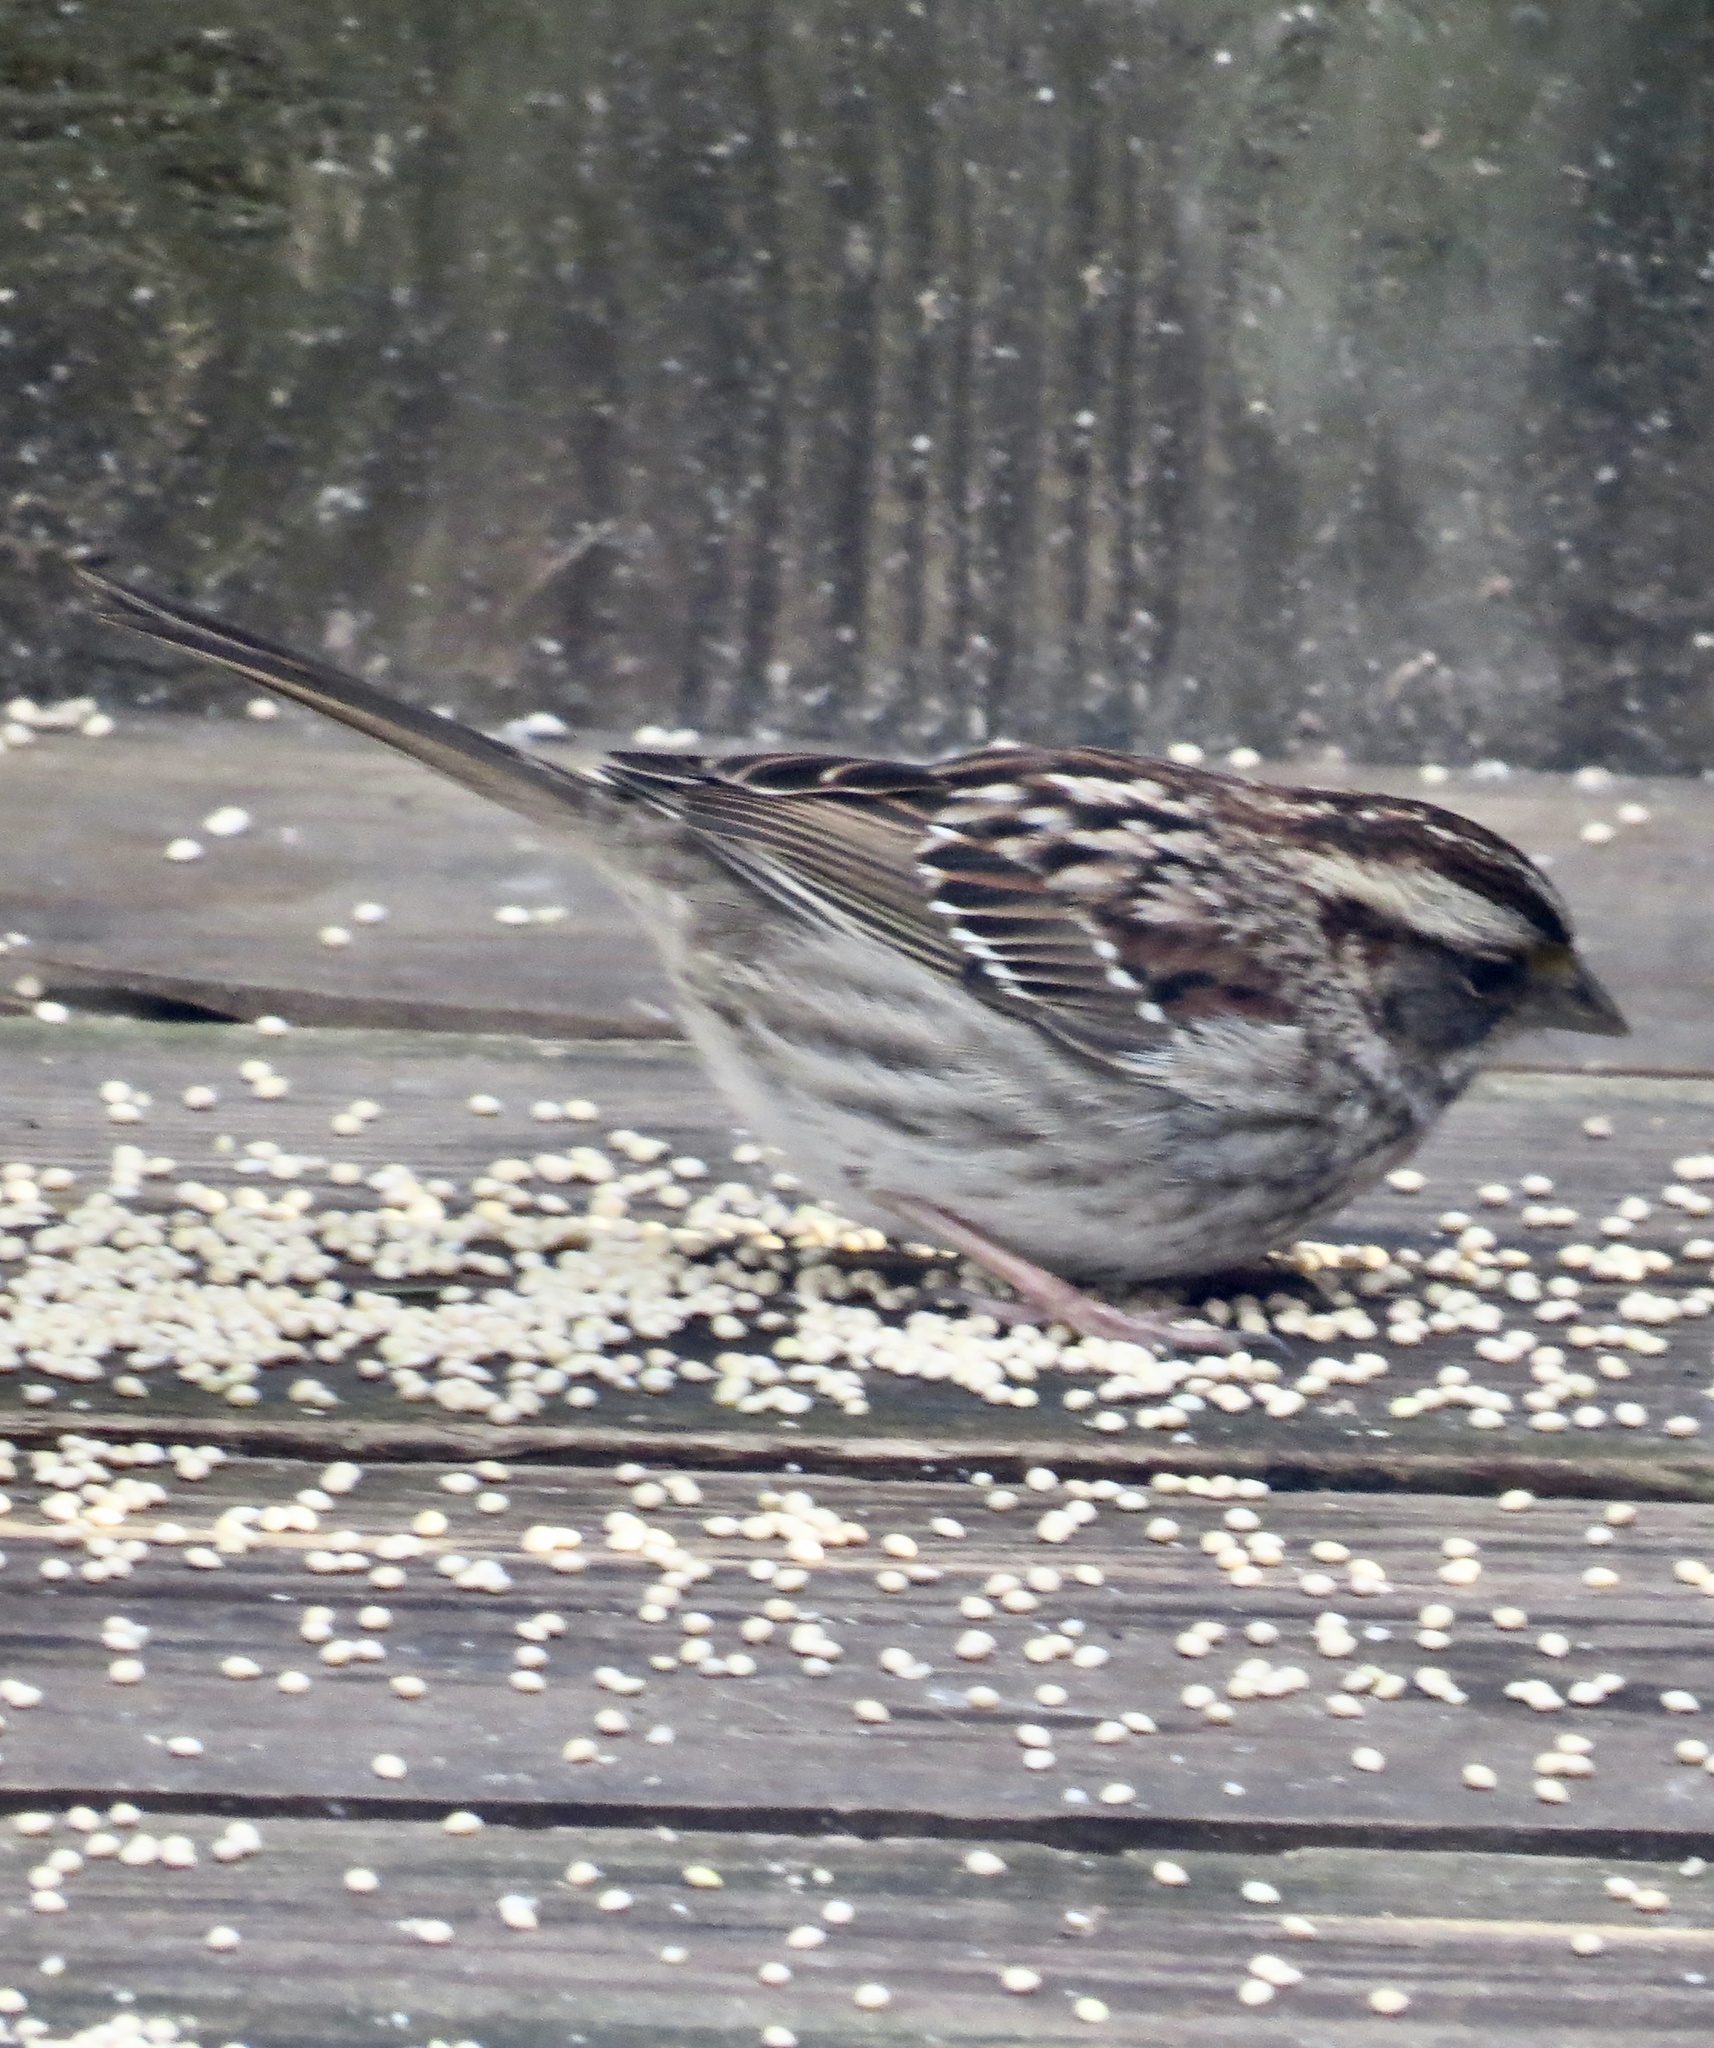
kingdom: Animalia
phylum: Chordata
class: Aves
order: Passeriformes
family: Passerellidae
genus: Zonotrichia
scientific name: Zonotrichia albicollis
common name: White-throated sparrow
